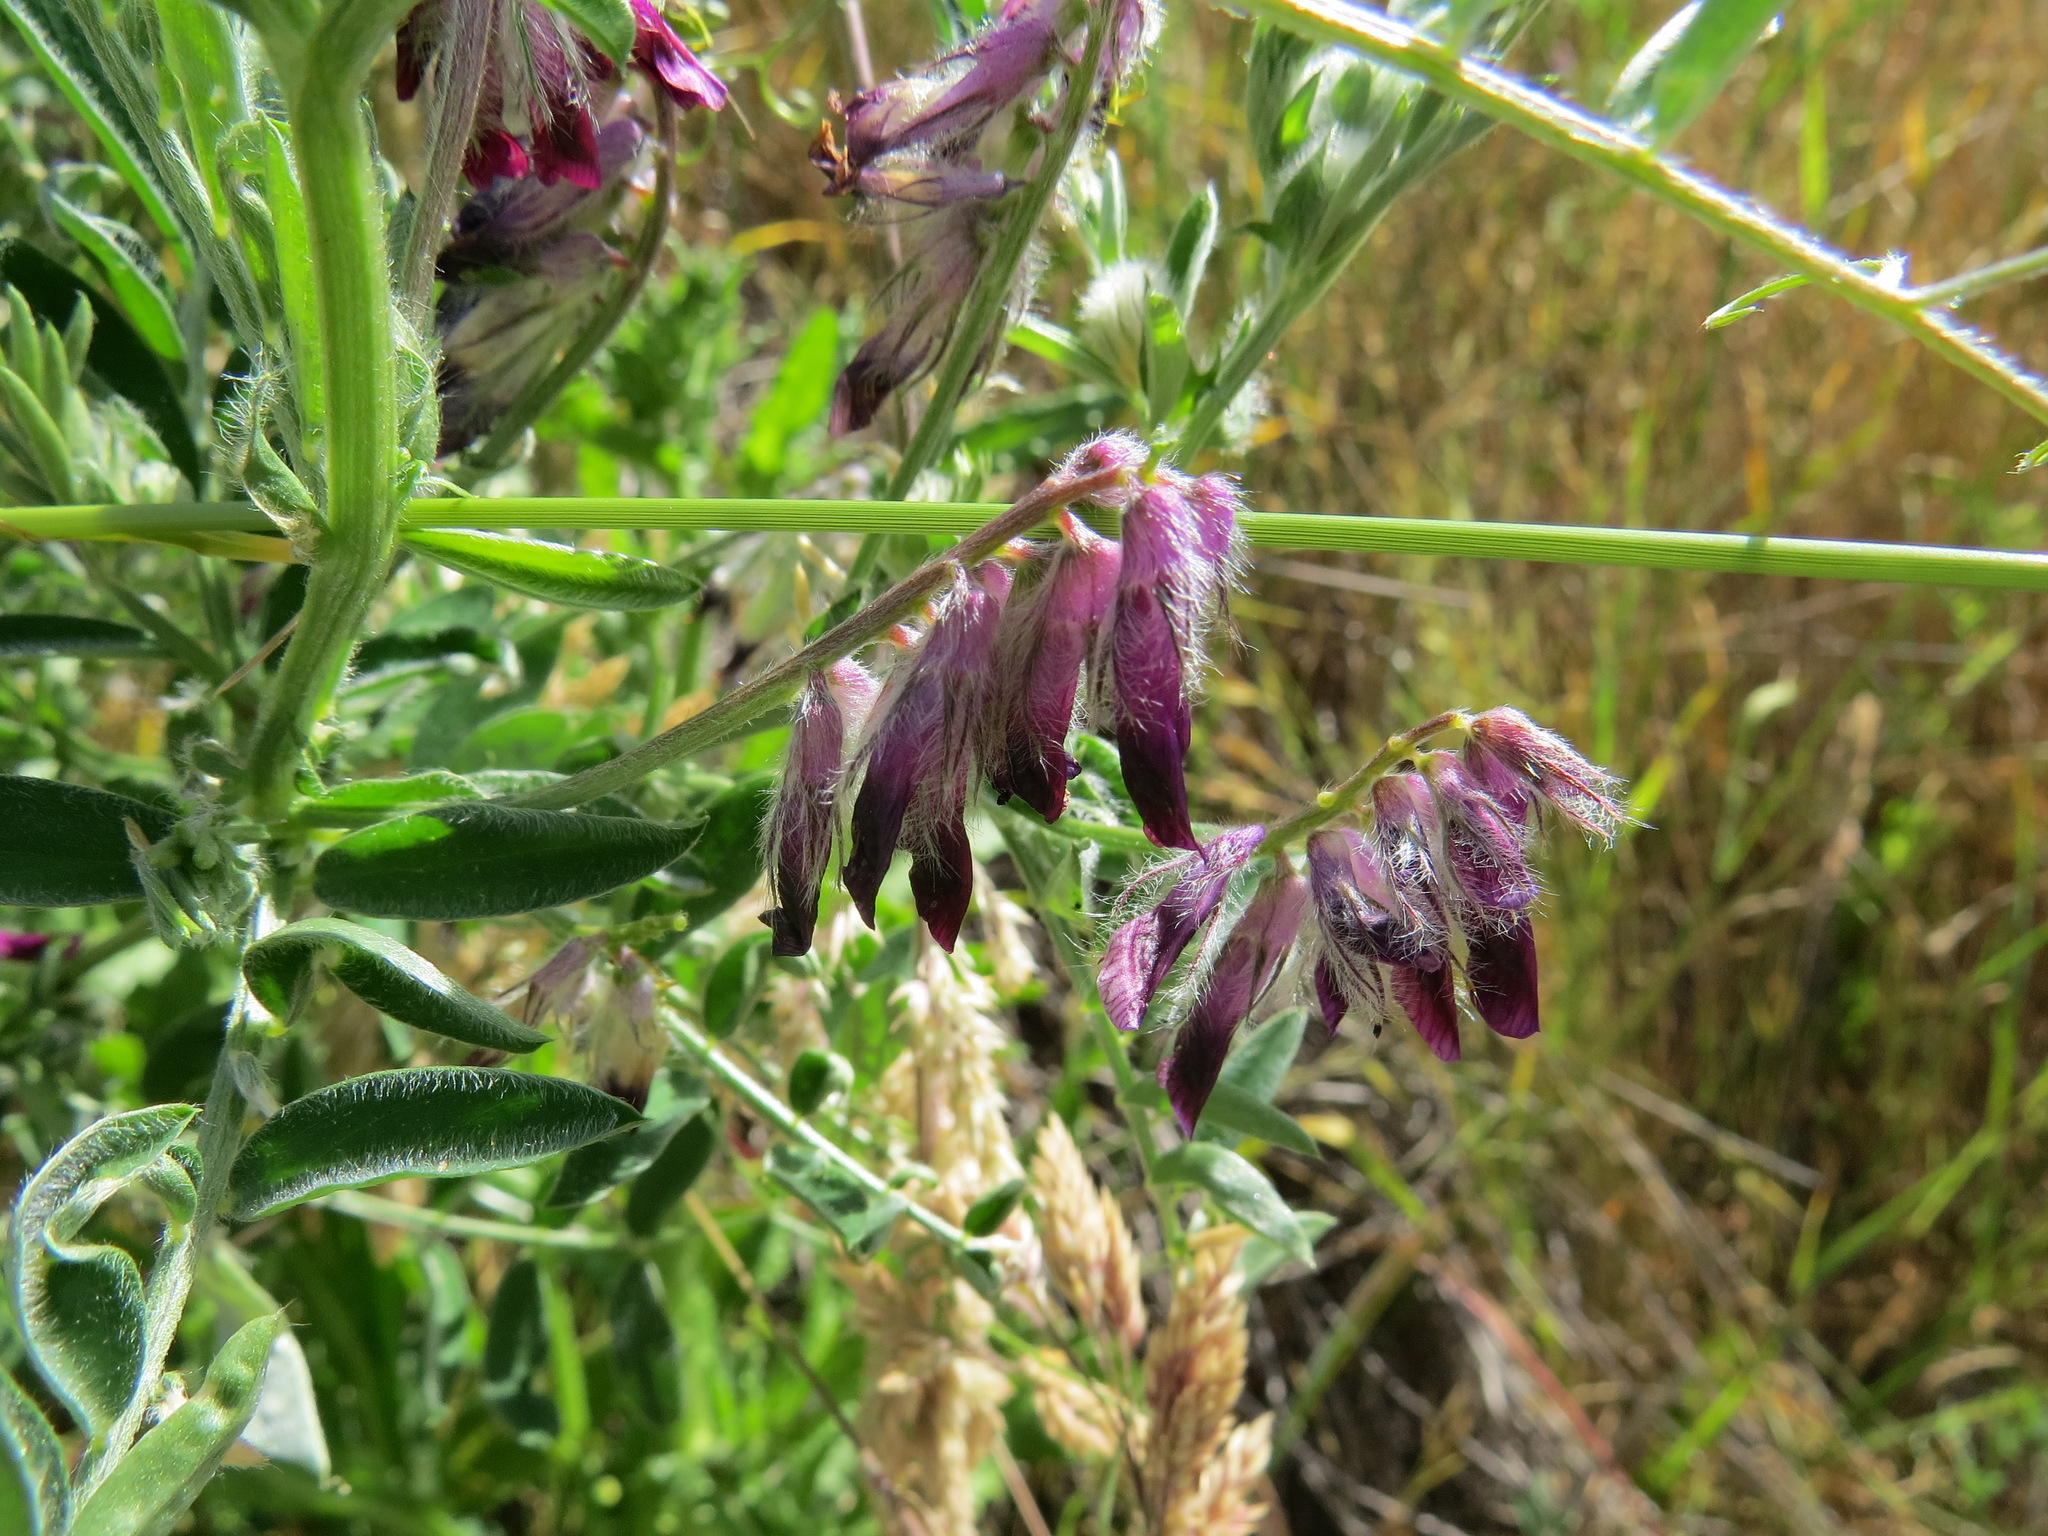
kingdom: Plantae
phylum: Tracheophyta
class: Magnoliopsida
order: Fabales
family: Fabaceae
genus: Vicia
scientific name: Vicia benghalensis
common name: Purple vetch
